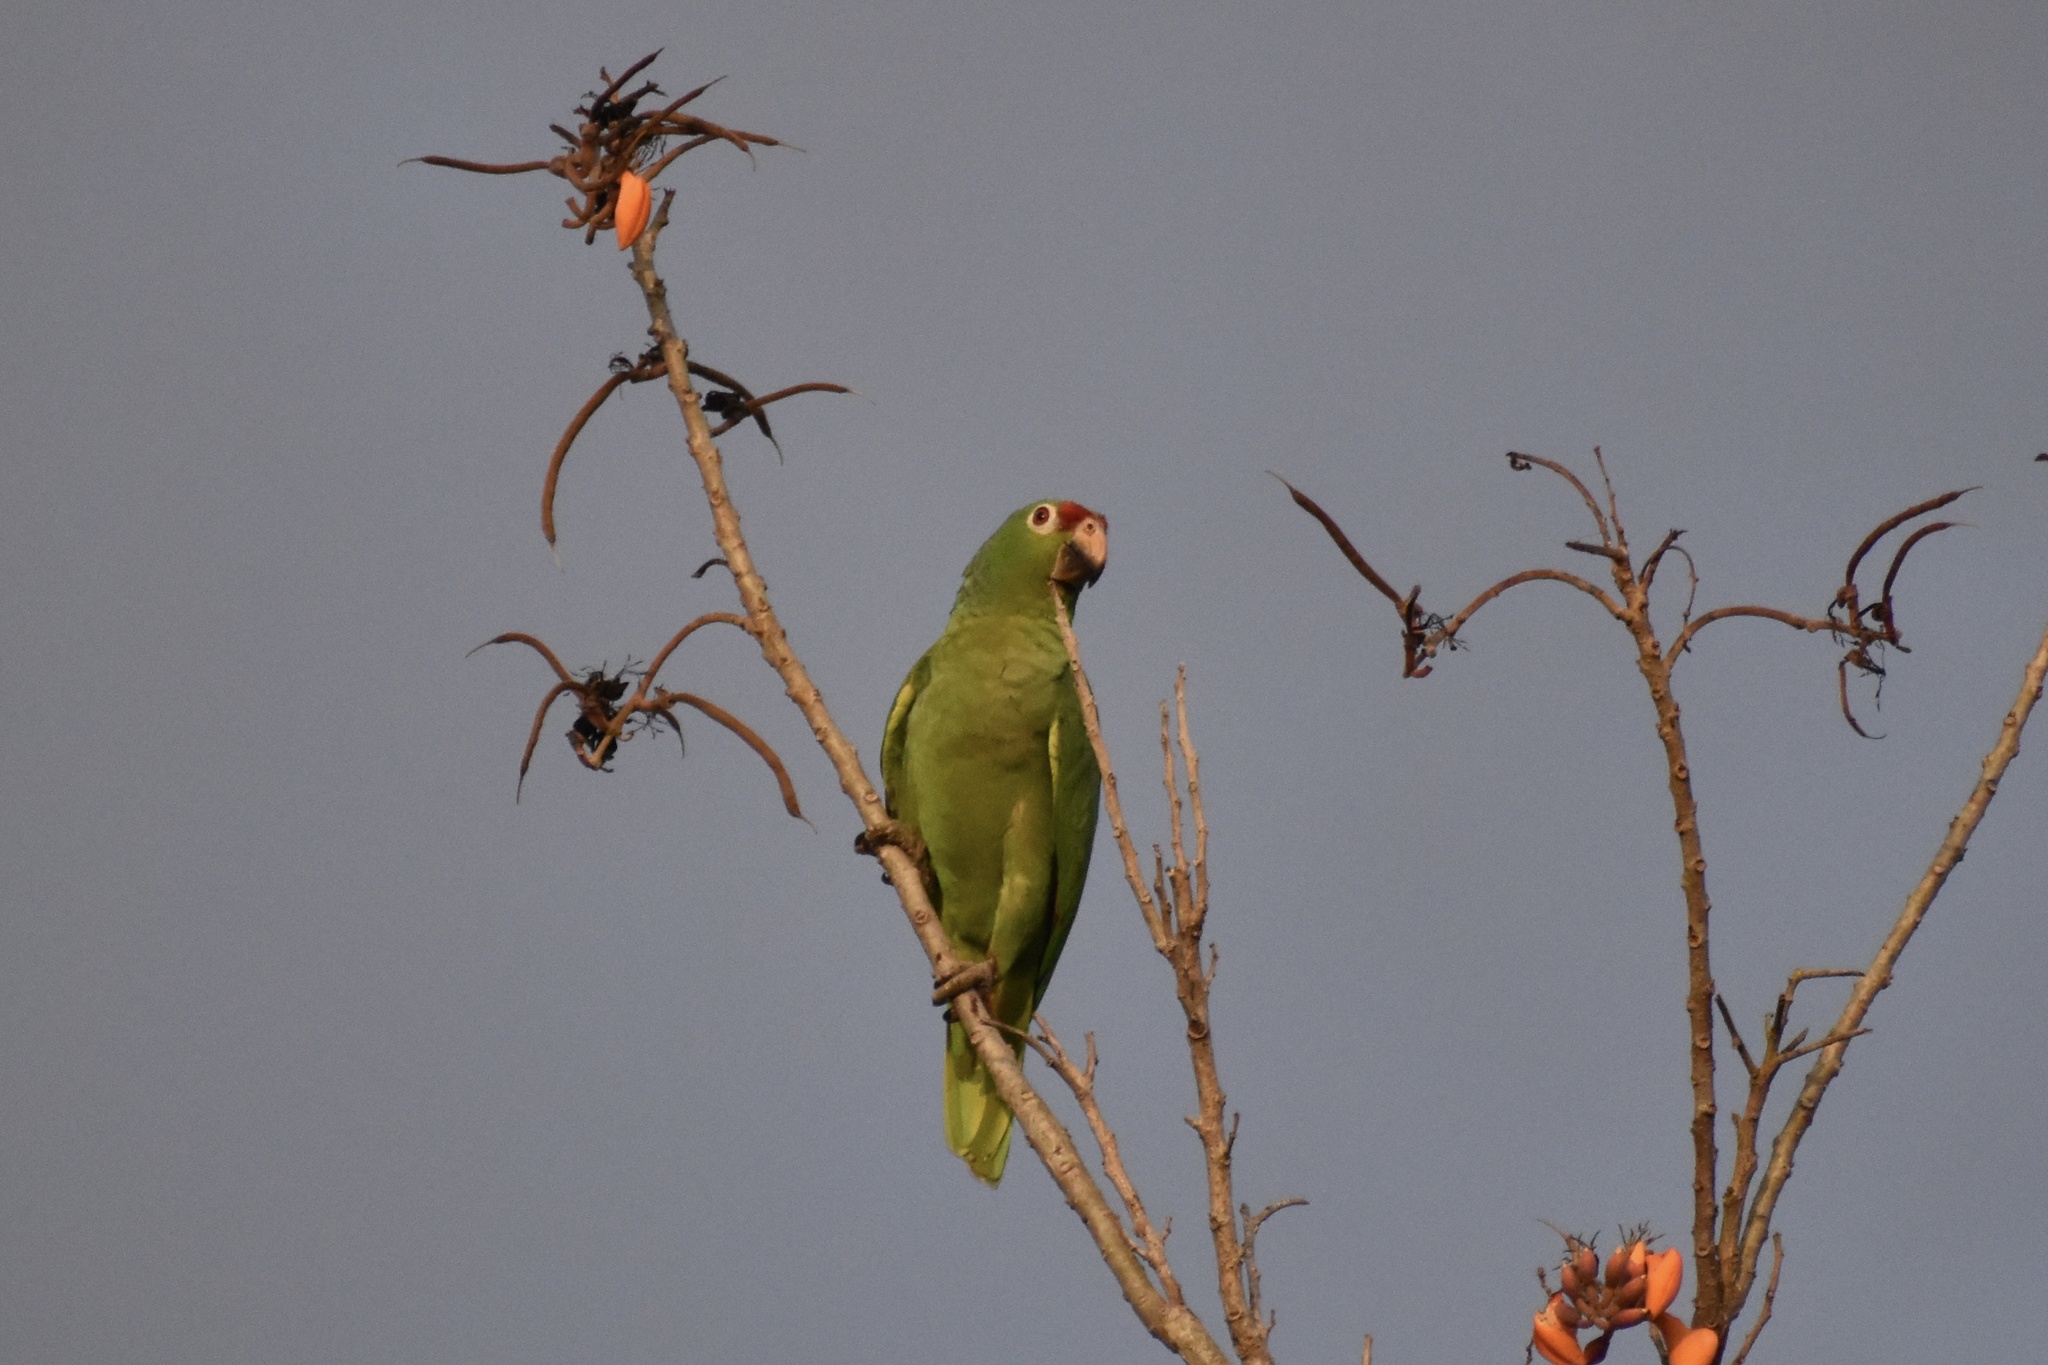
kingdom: Animalia
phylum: Chordata
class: Aves
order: Psittaciformes
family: Psittacidae
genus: Amazona
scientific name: Amazona autumnalis
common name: Red-lored amazon
